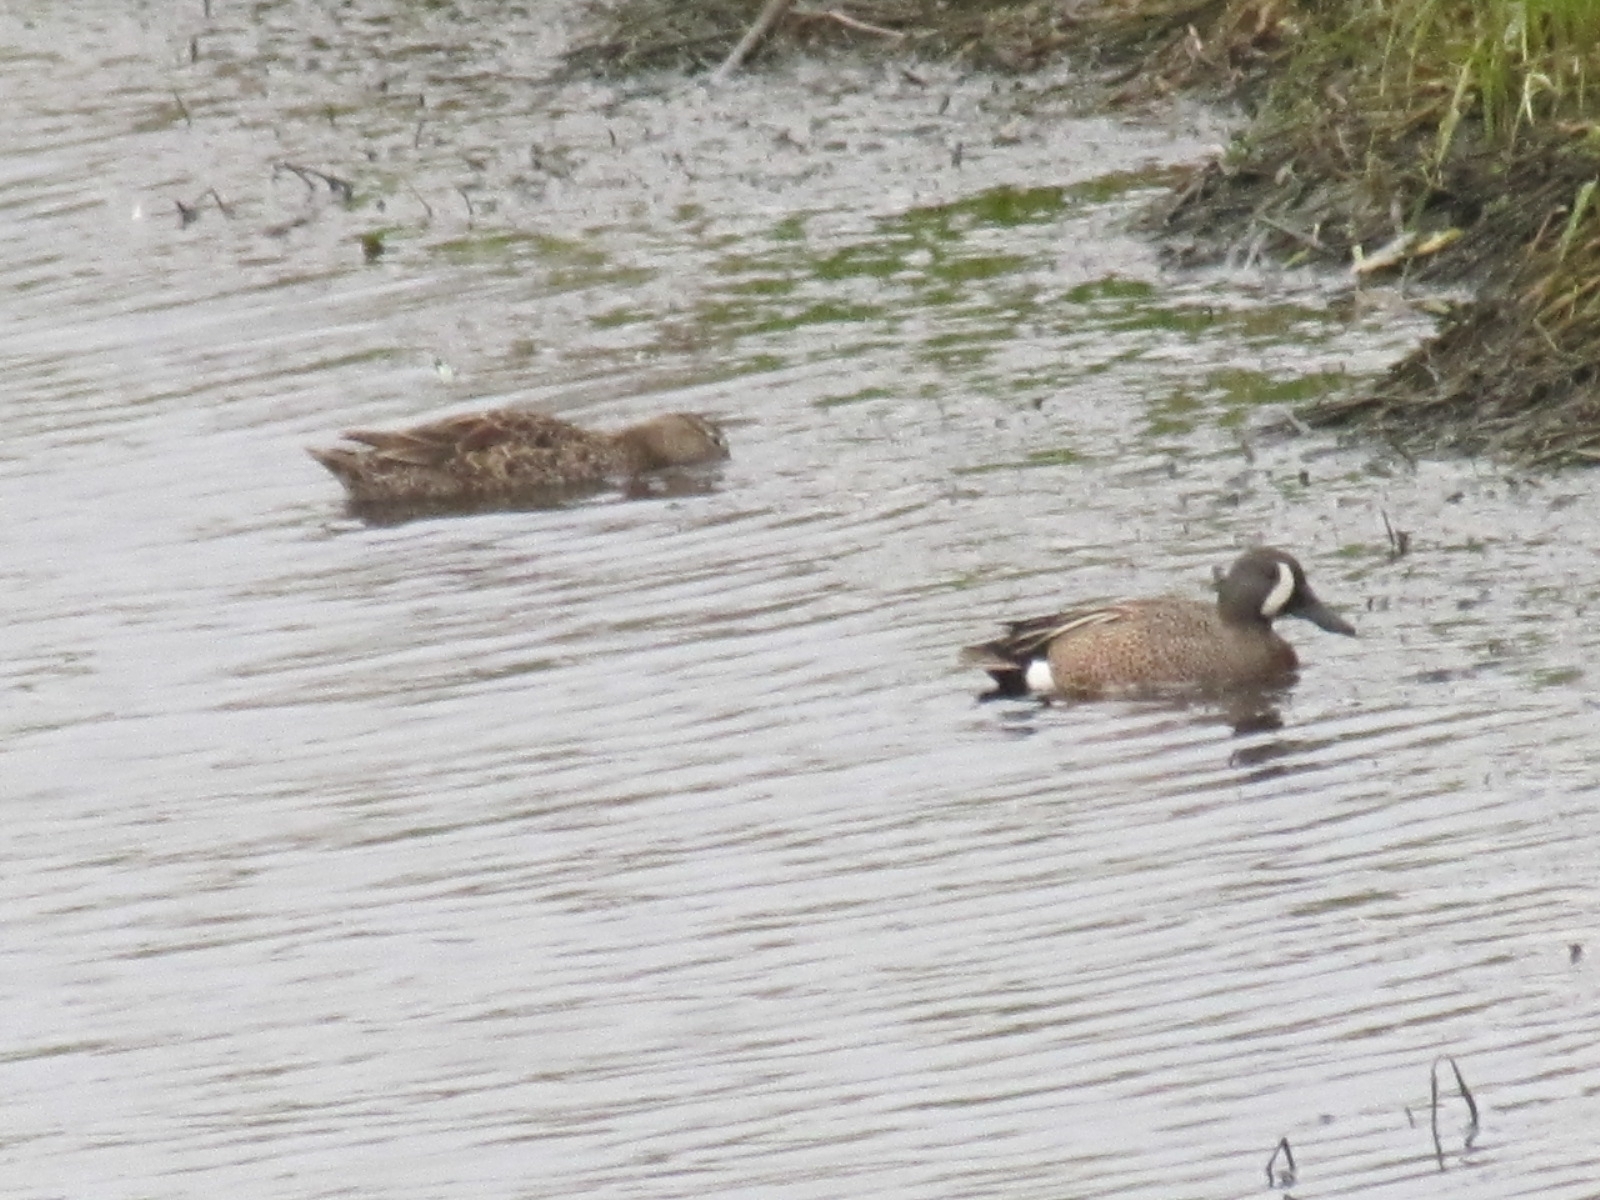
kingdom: Animalia
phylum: Chordata
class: Aves
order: Anseriformes
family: Anatidae
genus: Spatula
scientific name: Spatula discors
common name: Blue-winged teal
